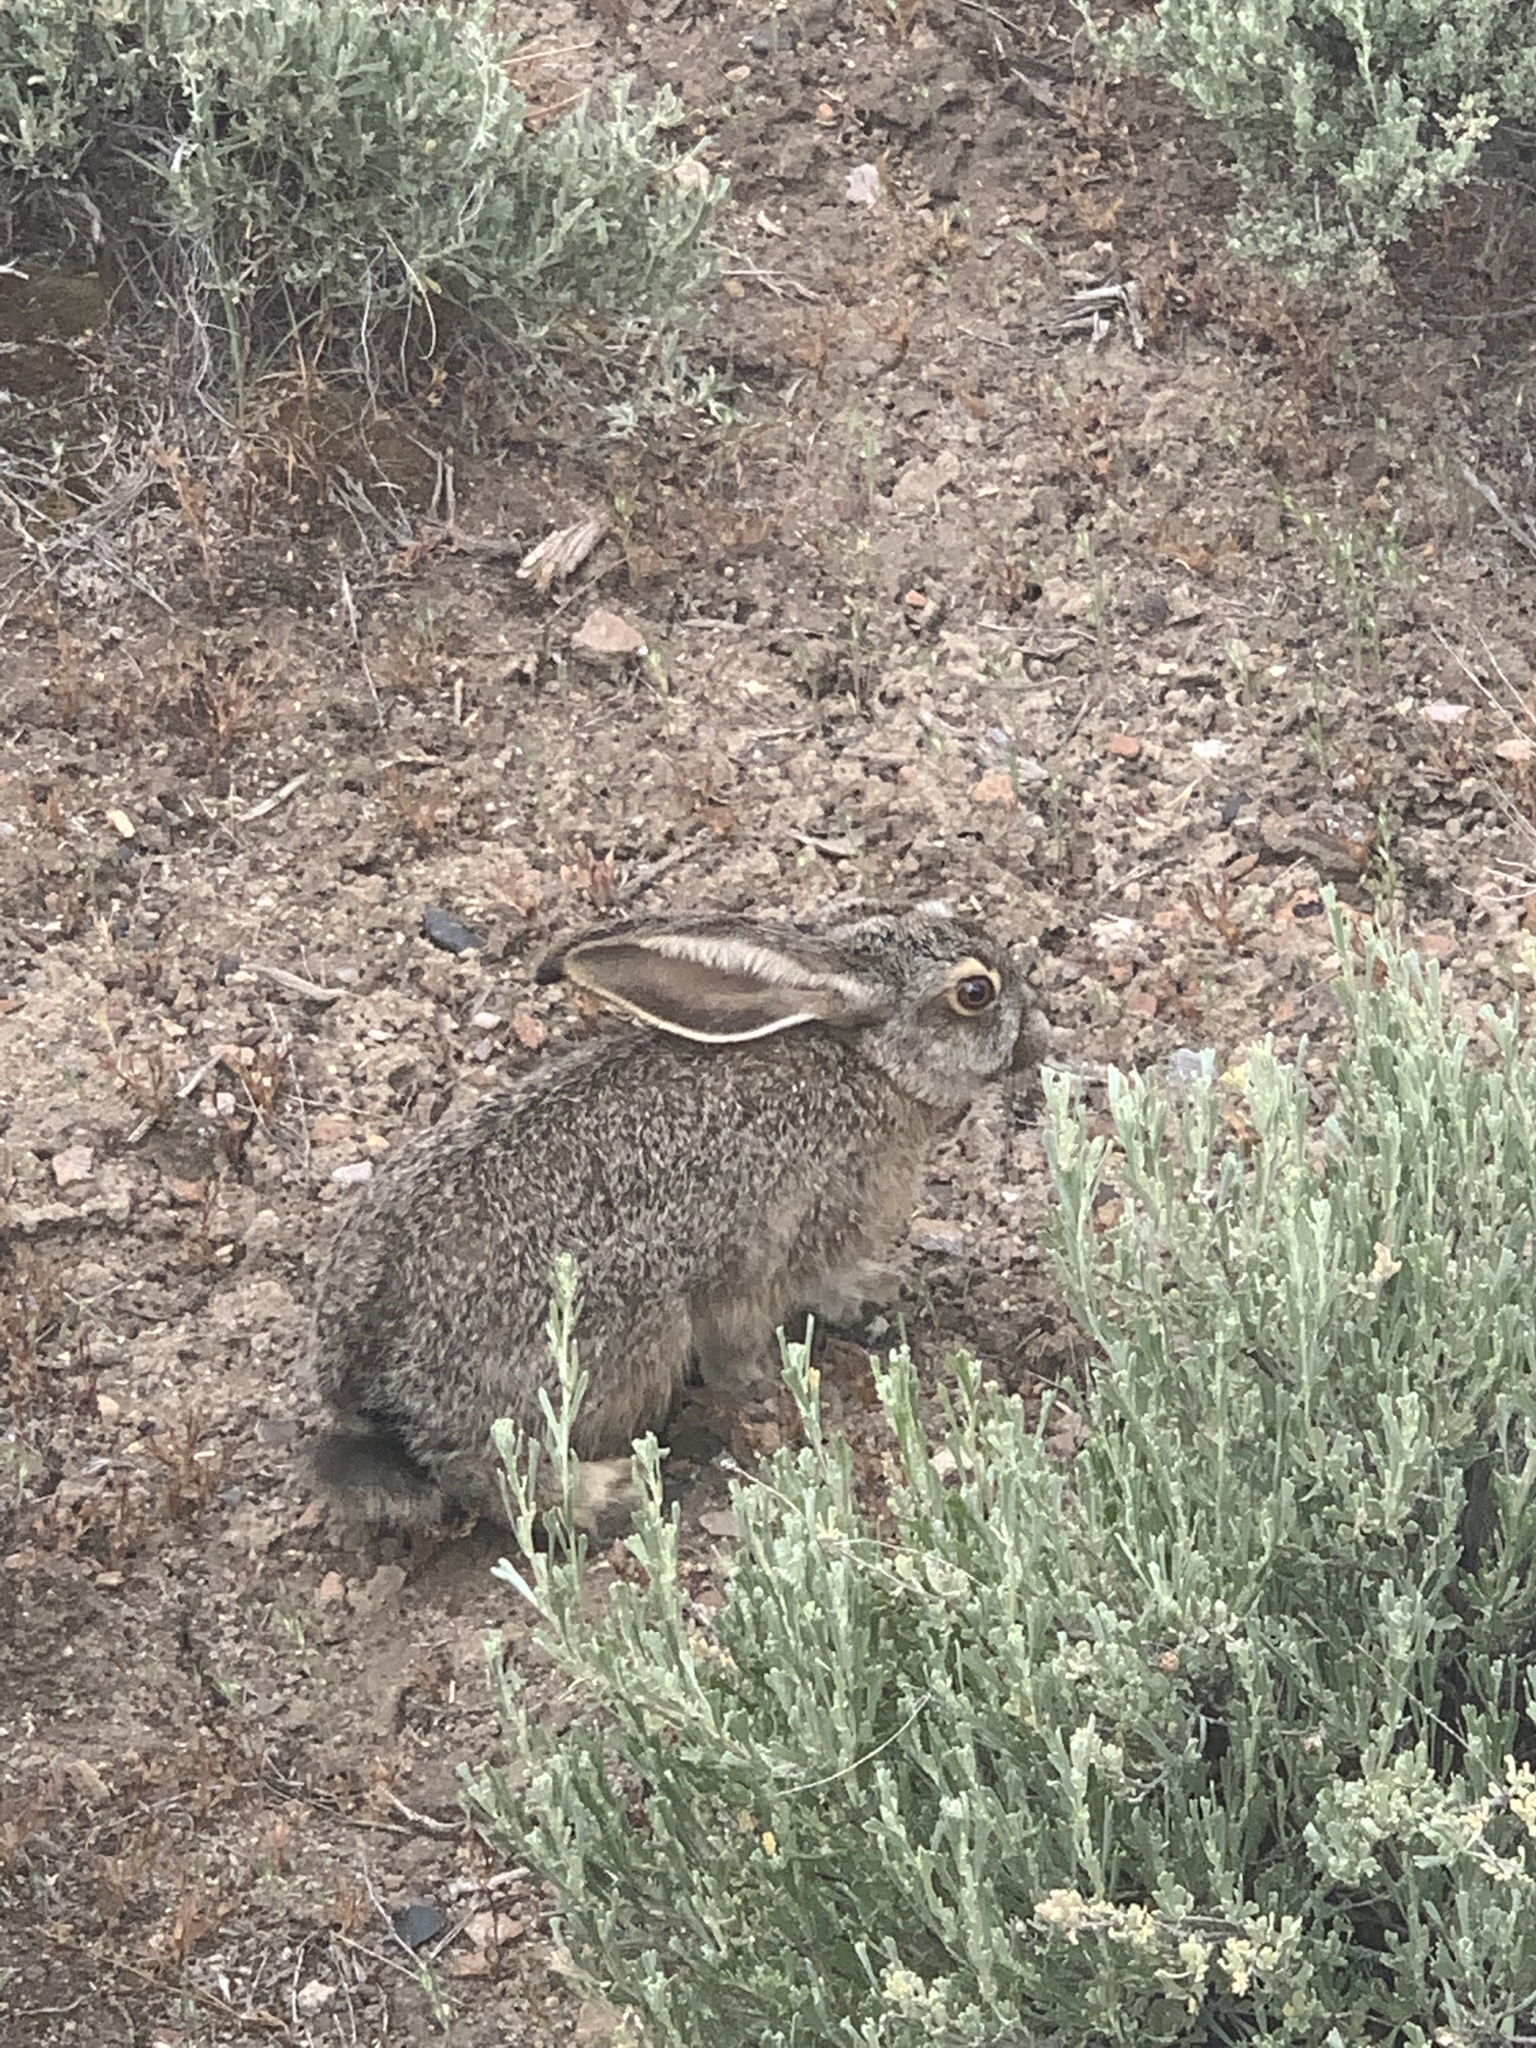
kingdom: Animalia
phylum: Chordata
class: Mammalia
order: Lagomorpha
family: Leporidae
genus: Lepus
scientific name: Lepus californicus
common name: Black-tailed jackrabbit
